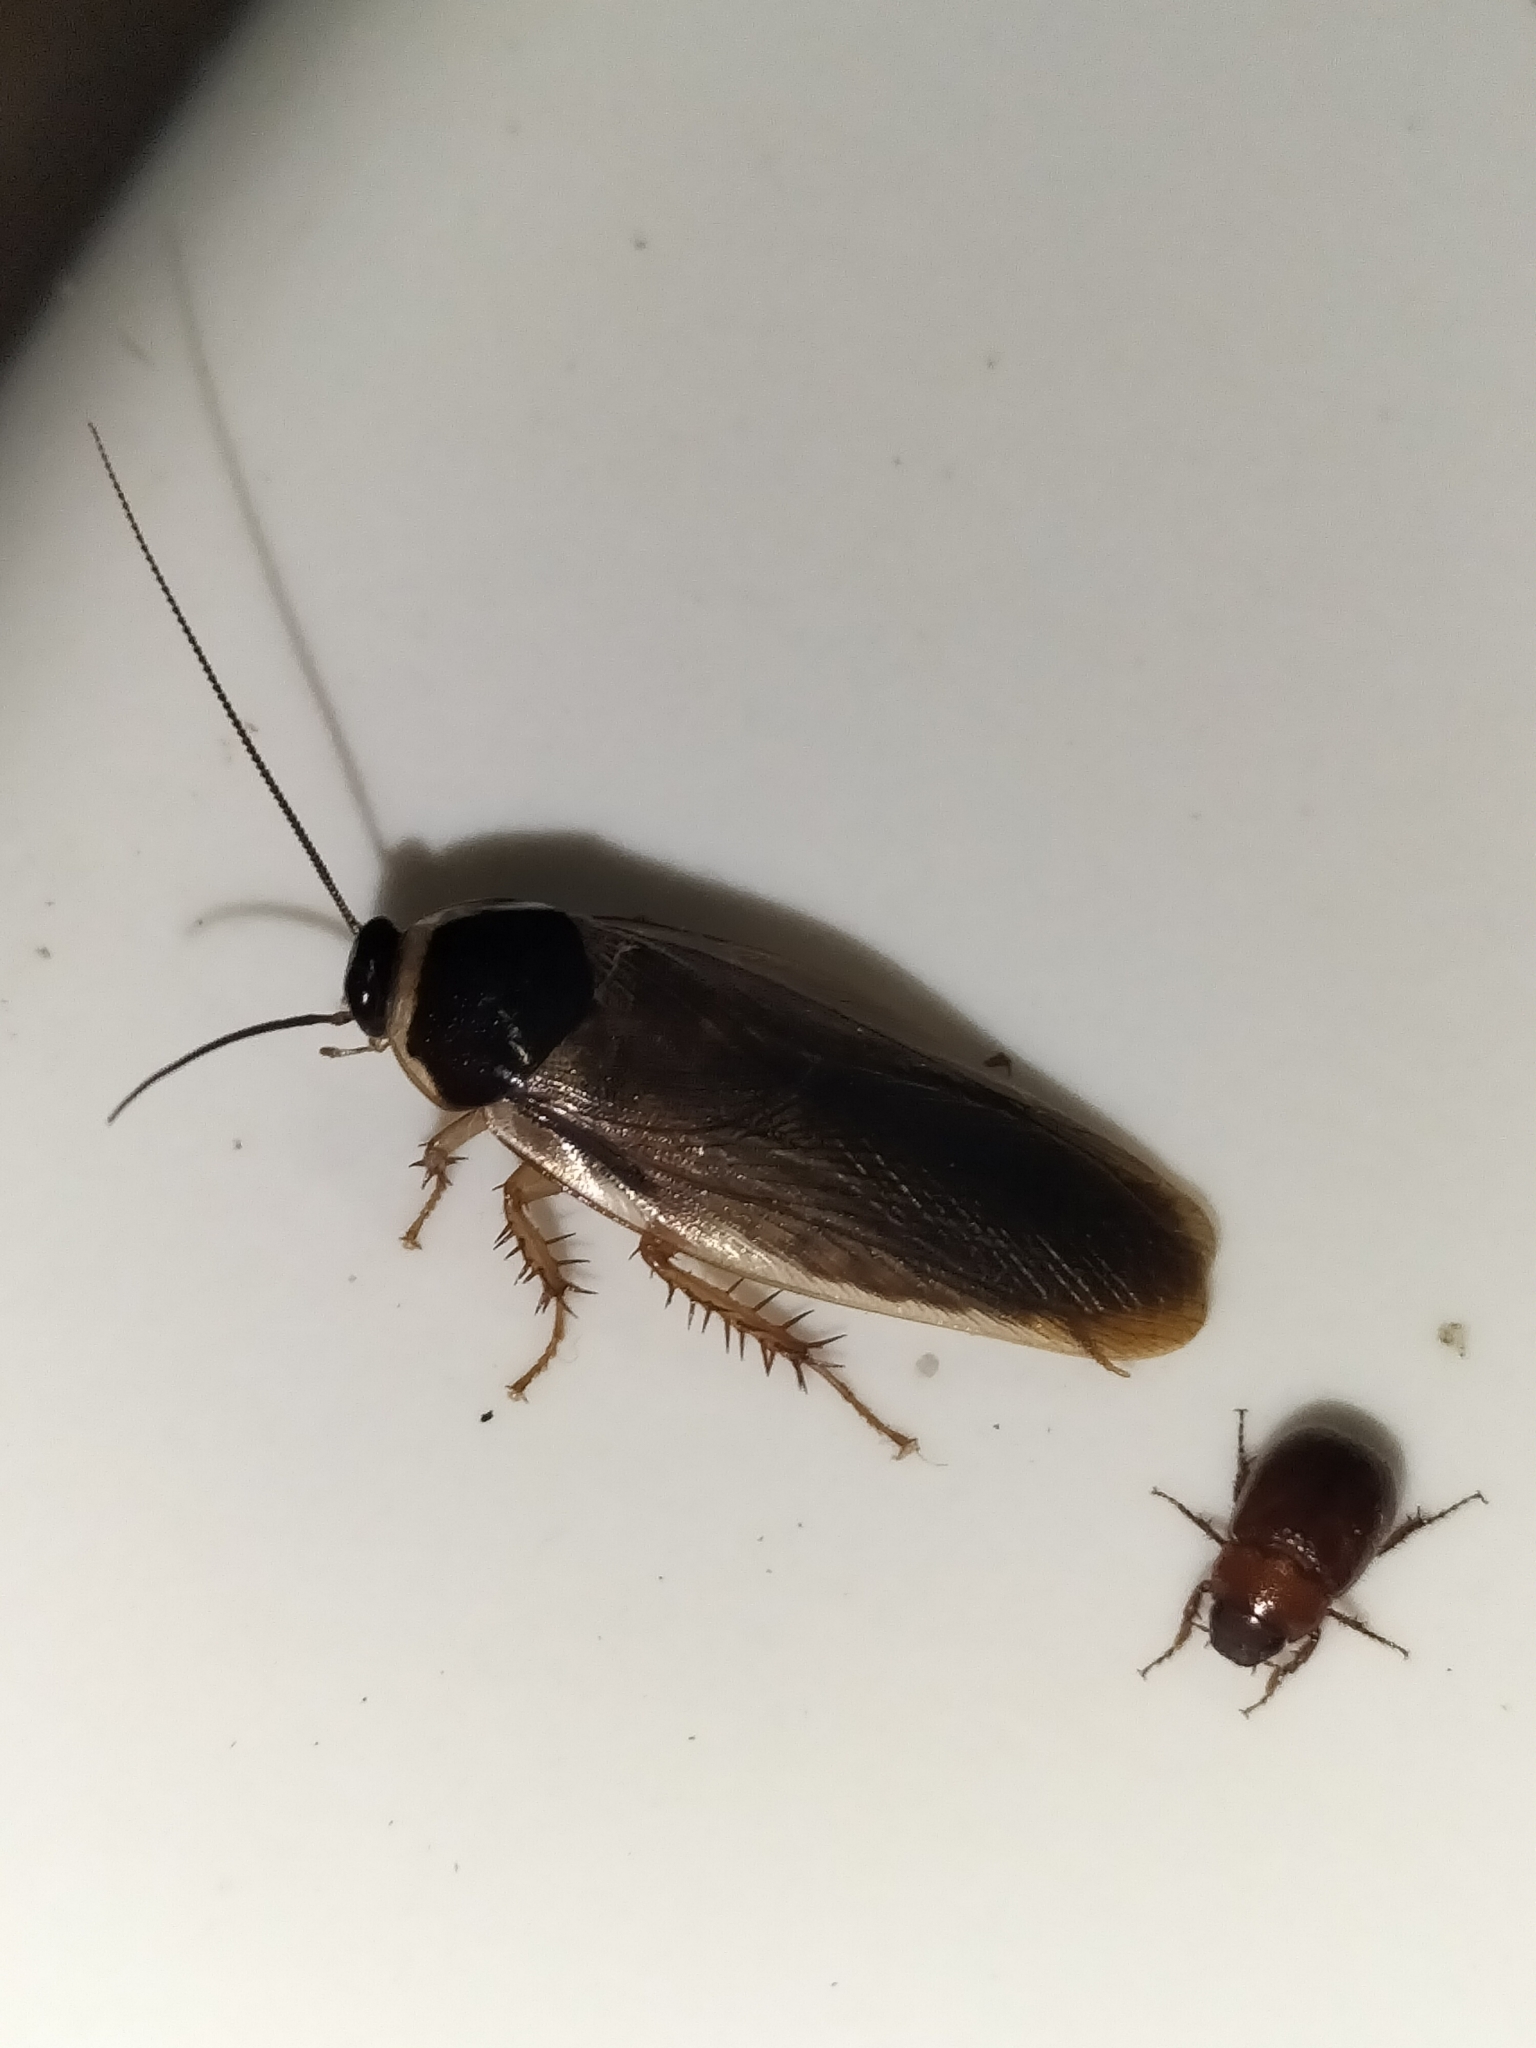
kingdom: Animalia
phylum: Arthropoda
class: Insecta
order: Blattodea
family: Blaberidae
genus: Pycnoscelus
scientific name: Pycnoscelus indicus
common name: Burrowing cockroach
